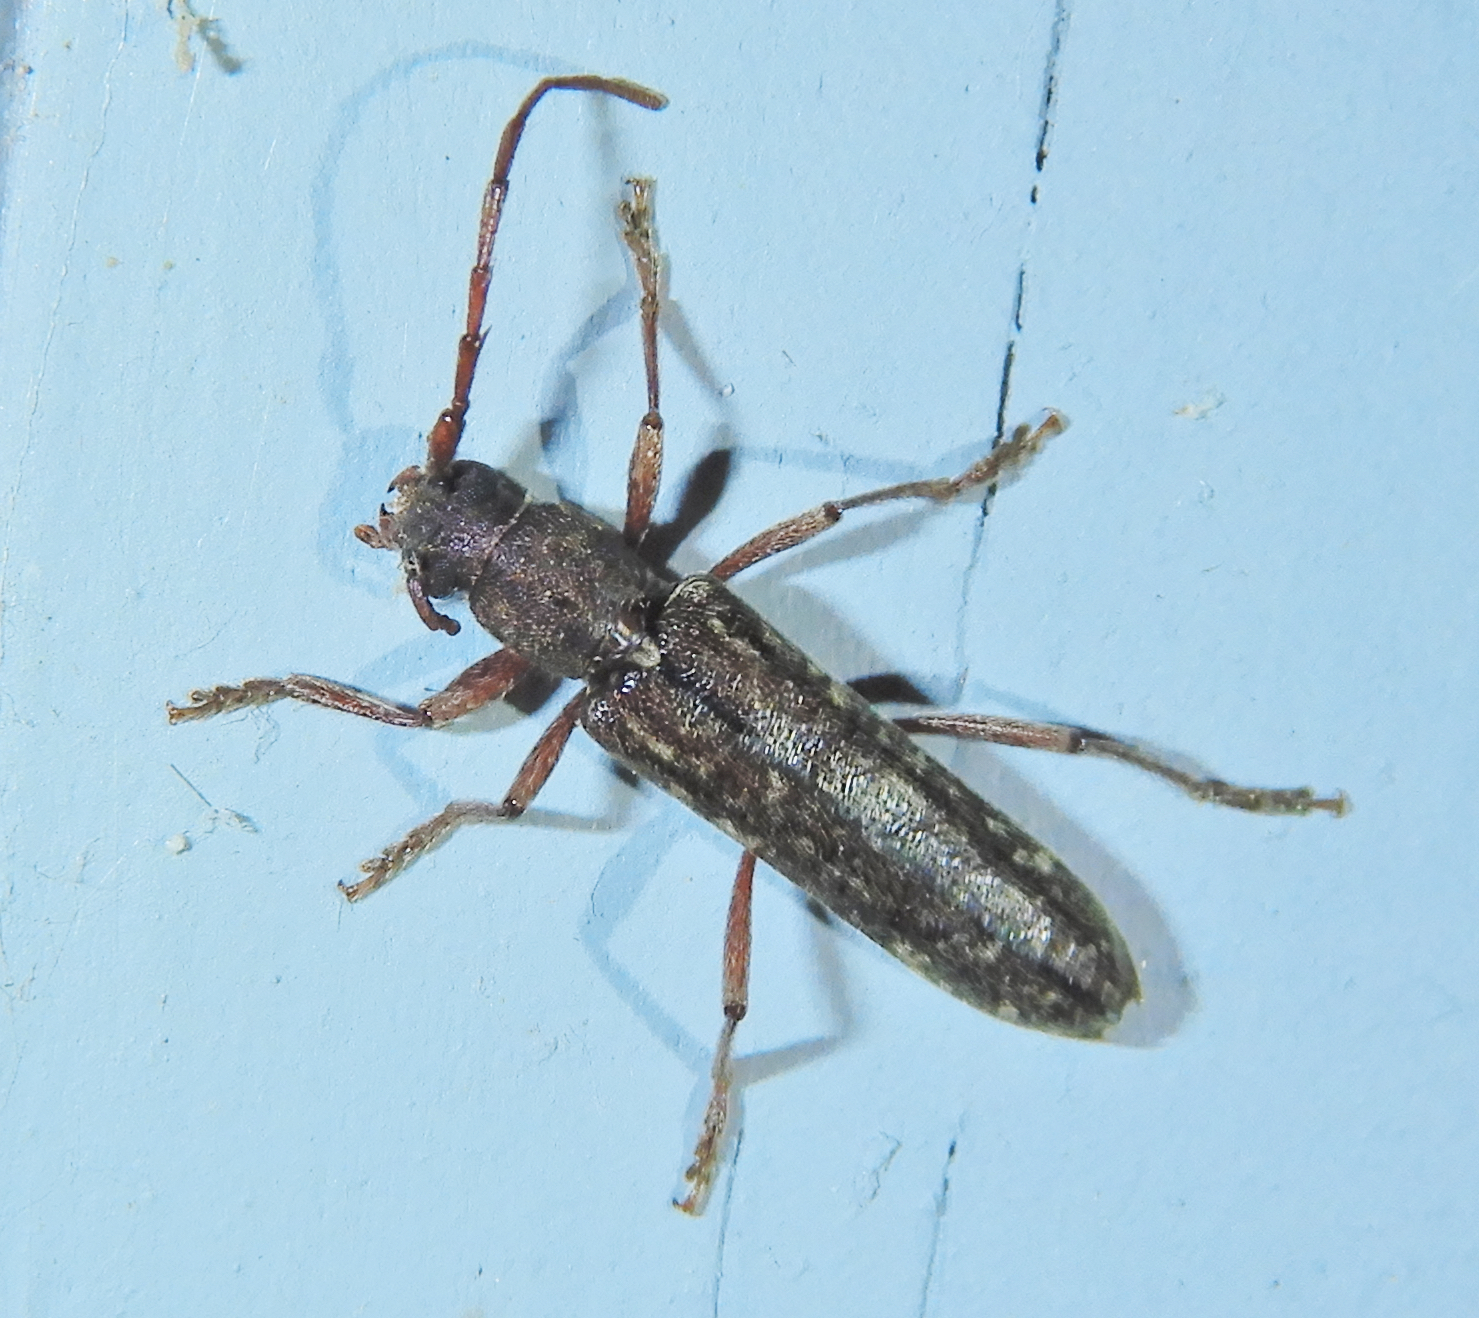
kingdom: Animalia
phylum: Arthropoda
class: Insecta
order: Coleoptera
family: Cerambycidae
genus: Anelaphus
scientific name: Anelaphus villosus
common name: Twig pruner
